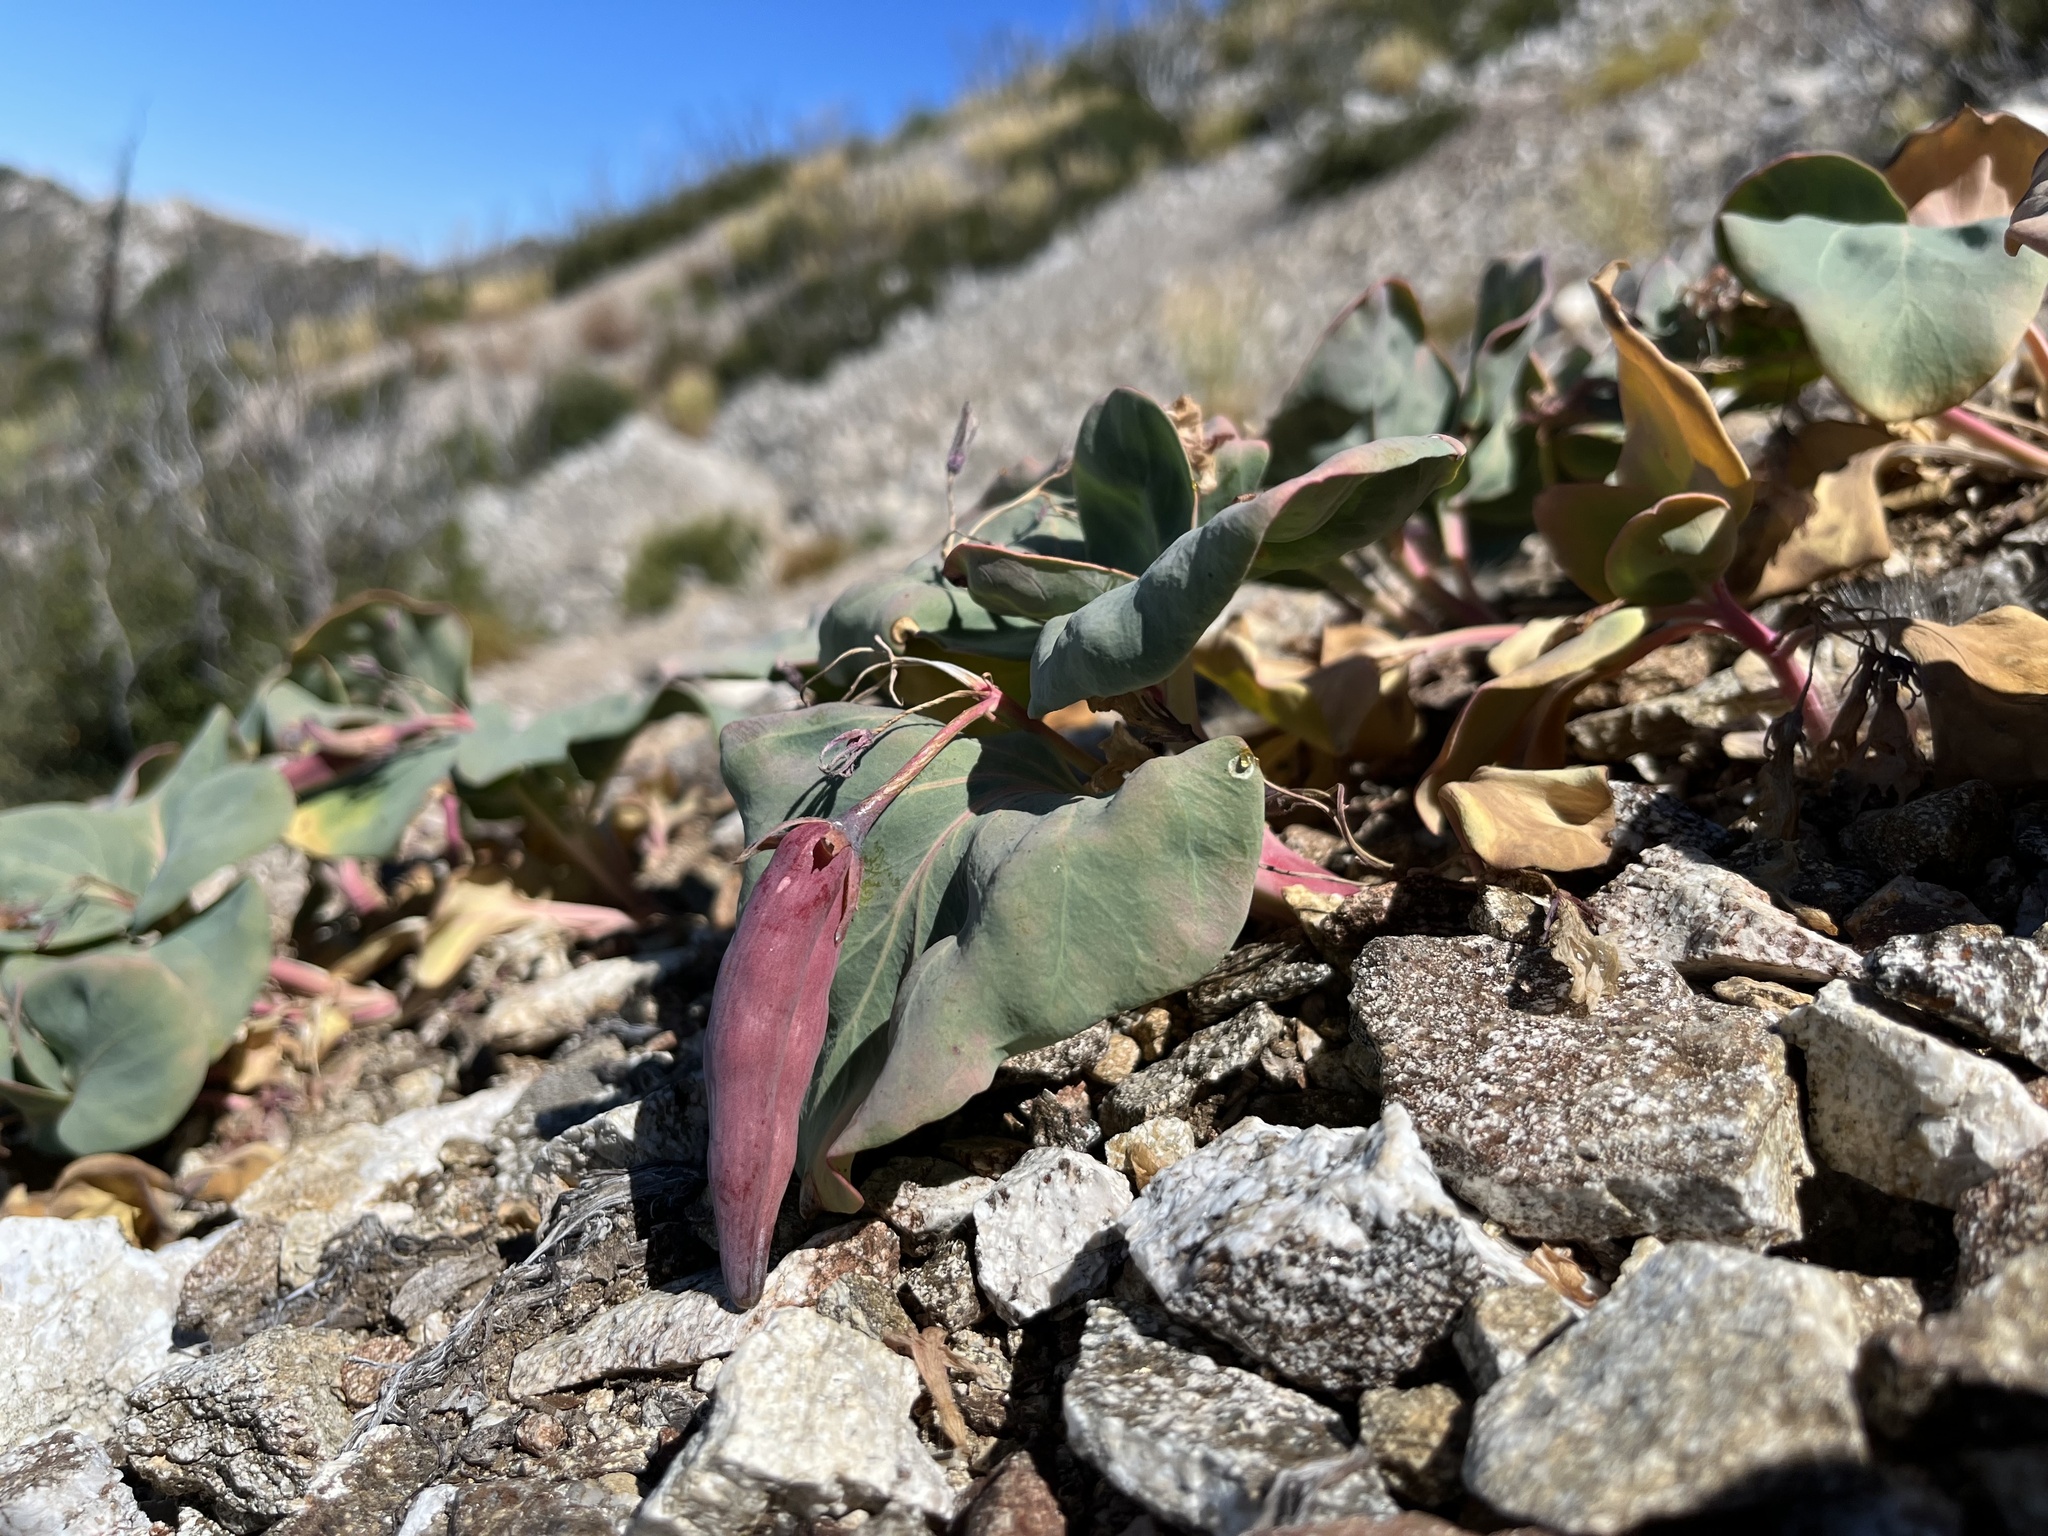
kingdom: Plantae
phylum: Tracheophyta
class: Magnoliopsida
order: Gentianales
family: Apocynaceae
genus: Cycladenia
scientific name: Cycladenia humilis
